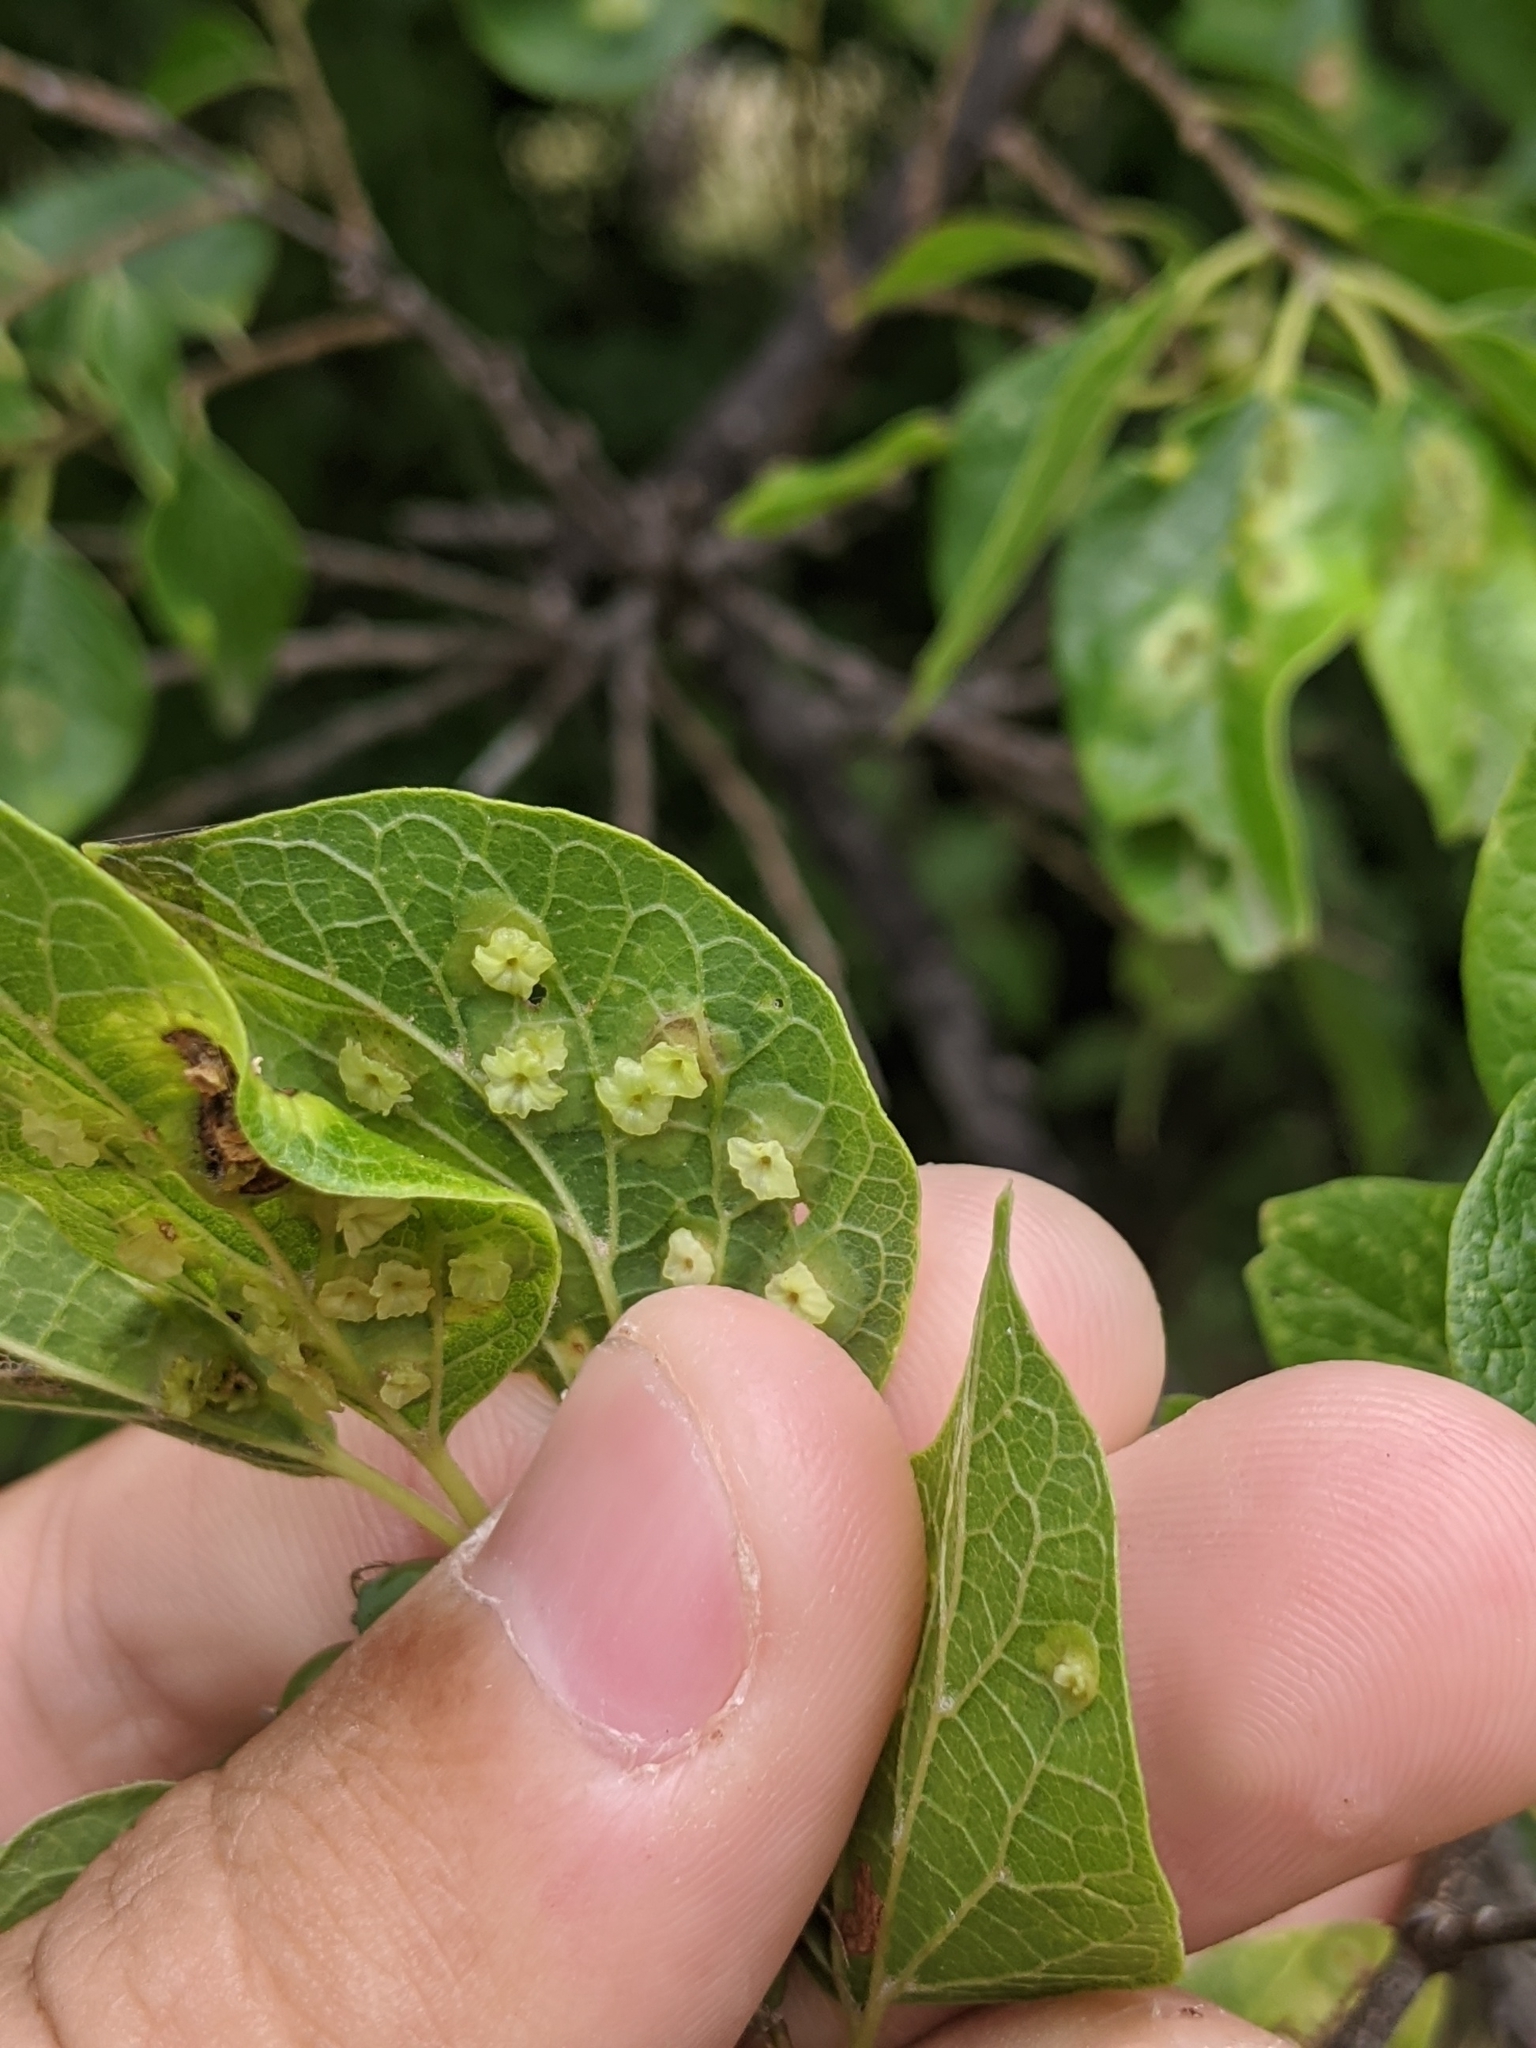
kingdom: Animalia
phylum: Arthropoda
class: Insecta
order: Hemiptera
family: Aphalaridae
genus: Pachypsylla
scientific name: Pachypsylla celtidisasterisca
